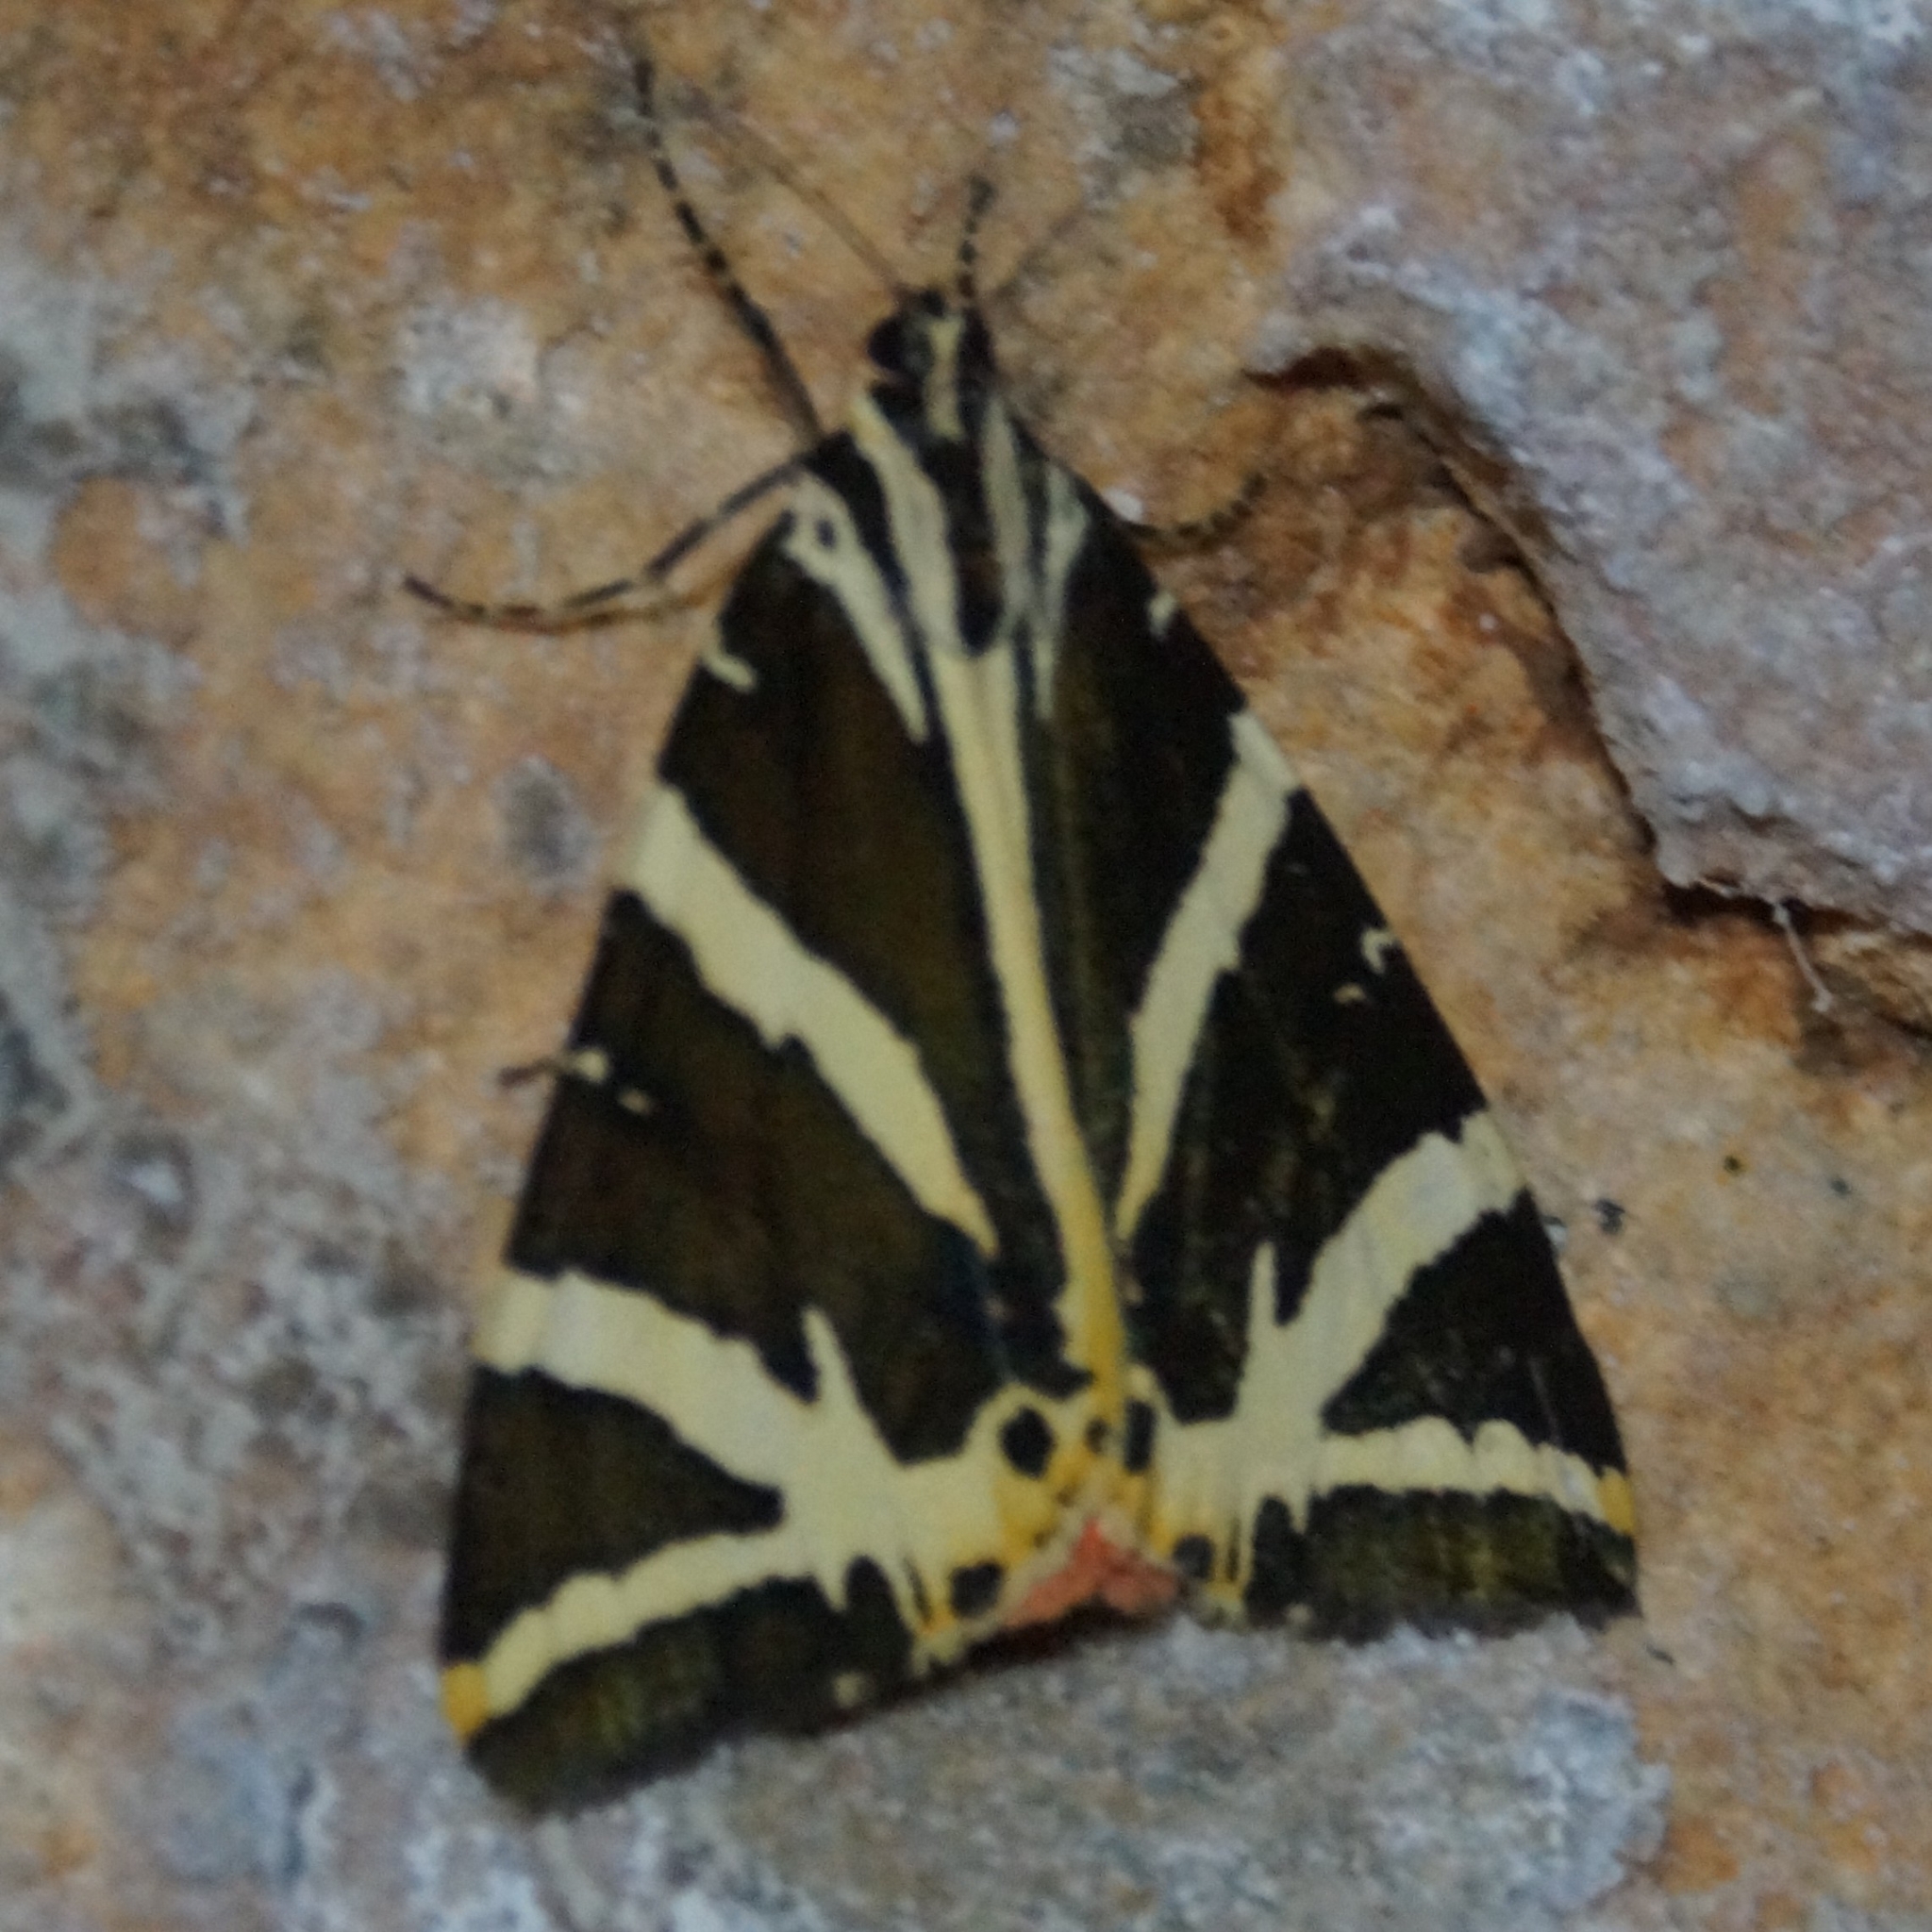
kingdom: Animalia
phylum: Arthropoda
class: Insecta
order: Lepidoptera
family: Erebidae
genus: Euplagia
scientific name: Euplagia quadripunctaria
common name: Jersey tiger
